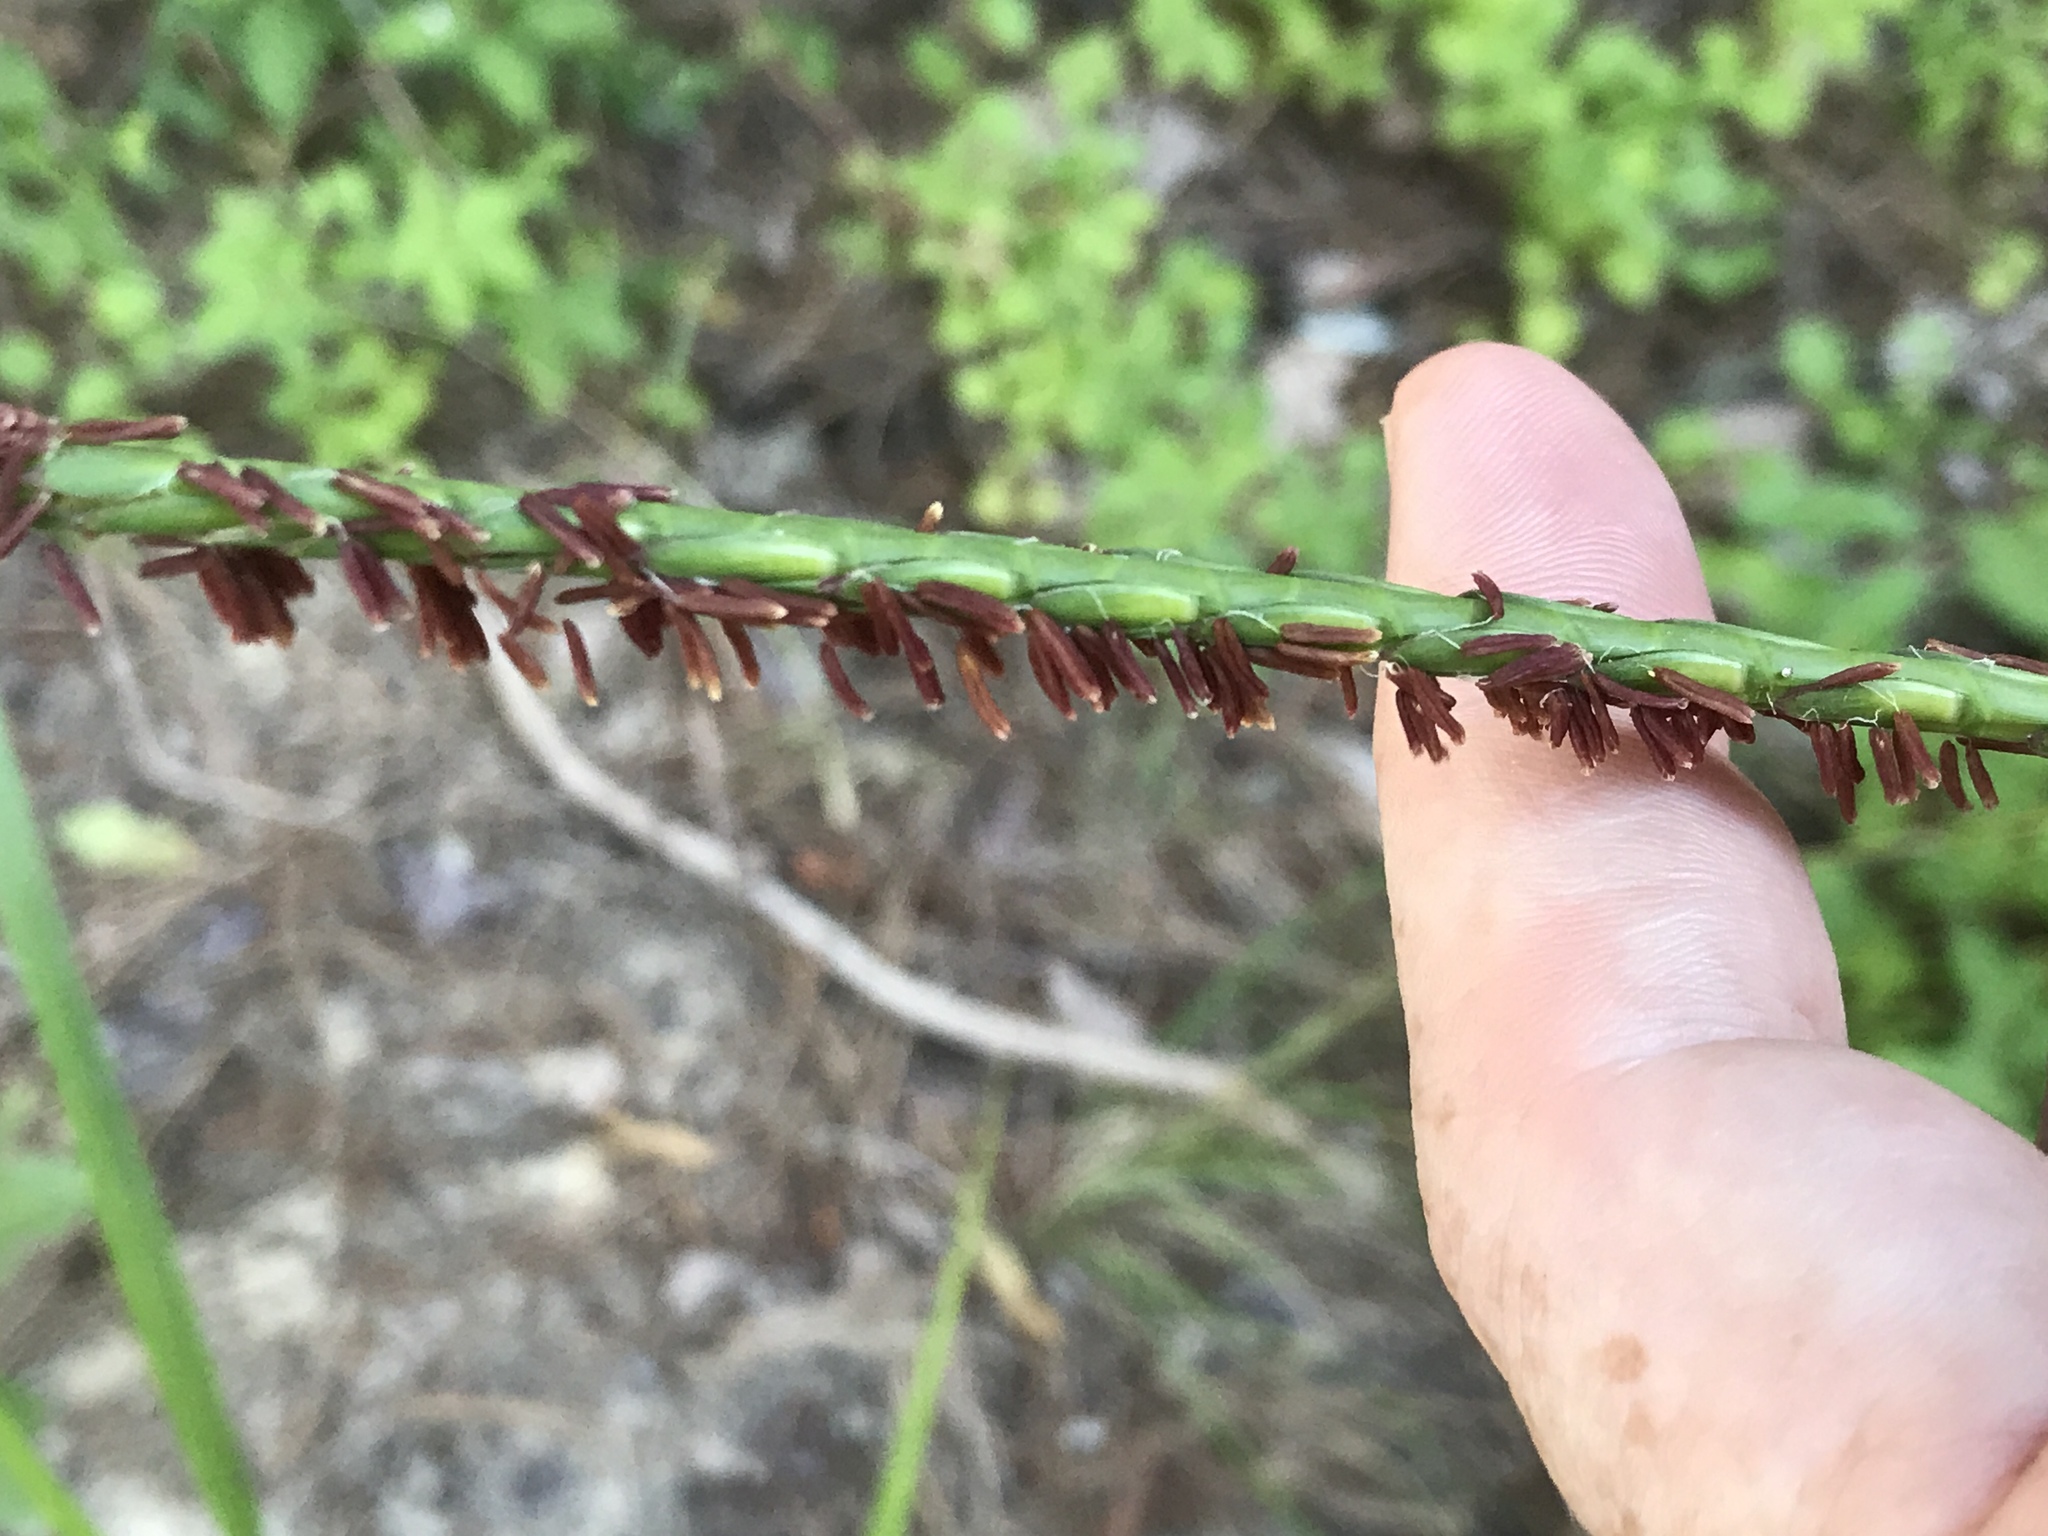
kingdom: Plantae
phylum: Tracheophyta
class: Liliopsida
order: Poales
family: Poaceae
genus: Tripsacum
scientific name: Tripsacum dactyloides
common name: Buffalo-grass
